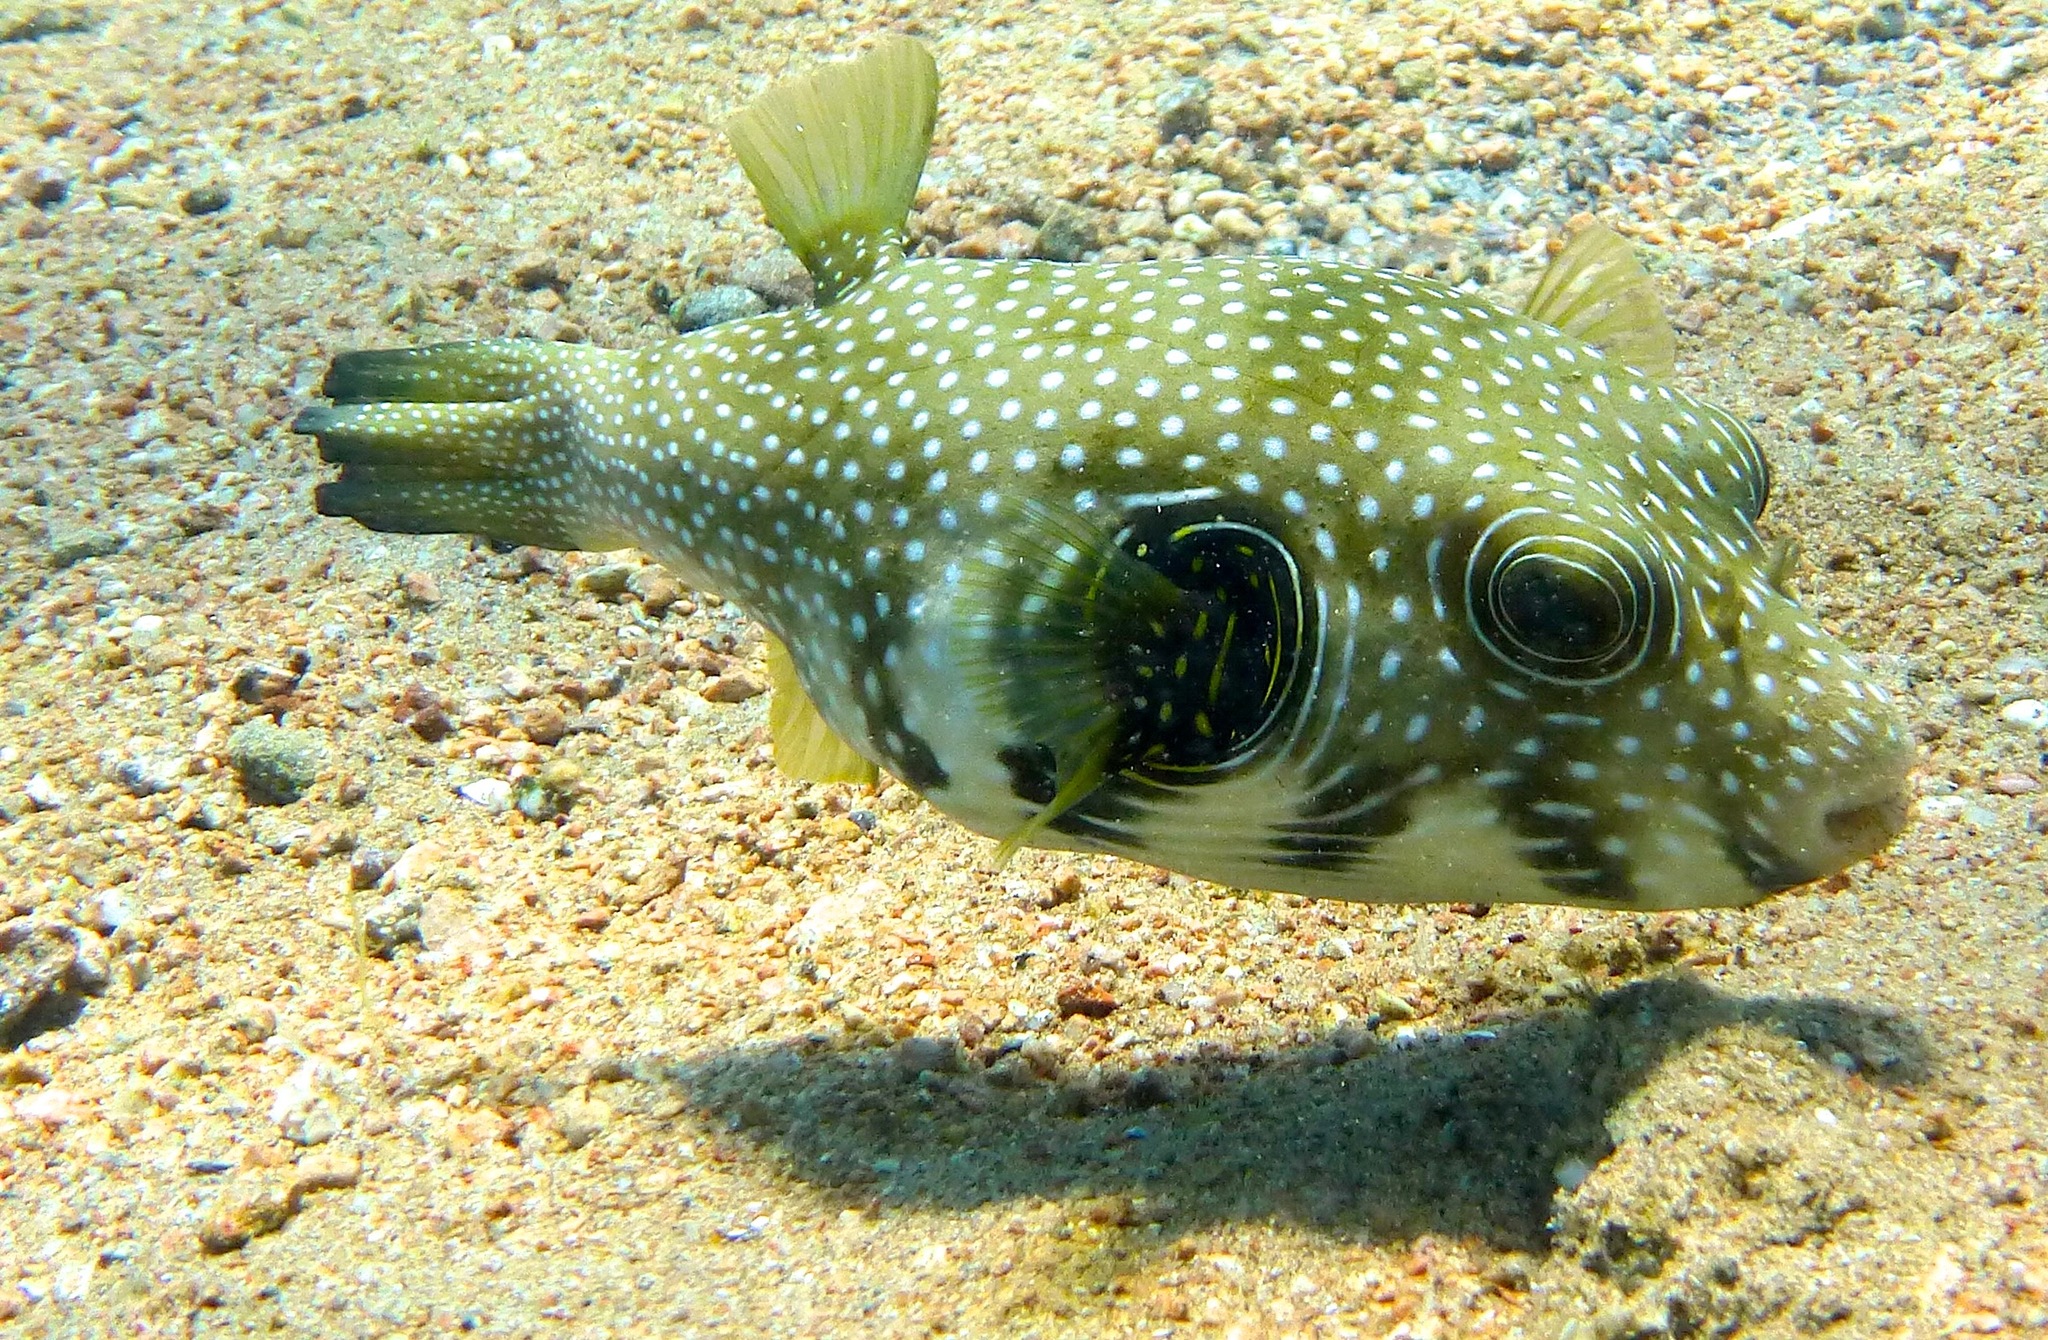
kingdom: Animalia
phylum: Chordata
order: Tetraodontiformes
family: Tetraodontidae
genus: Arothron
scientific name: Arothron hispidus
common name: Stripebelly puffer
